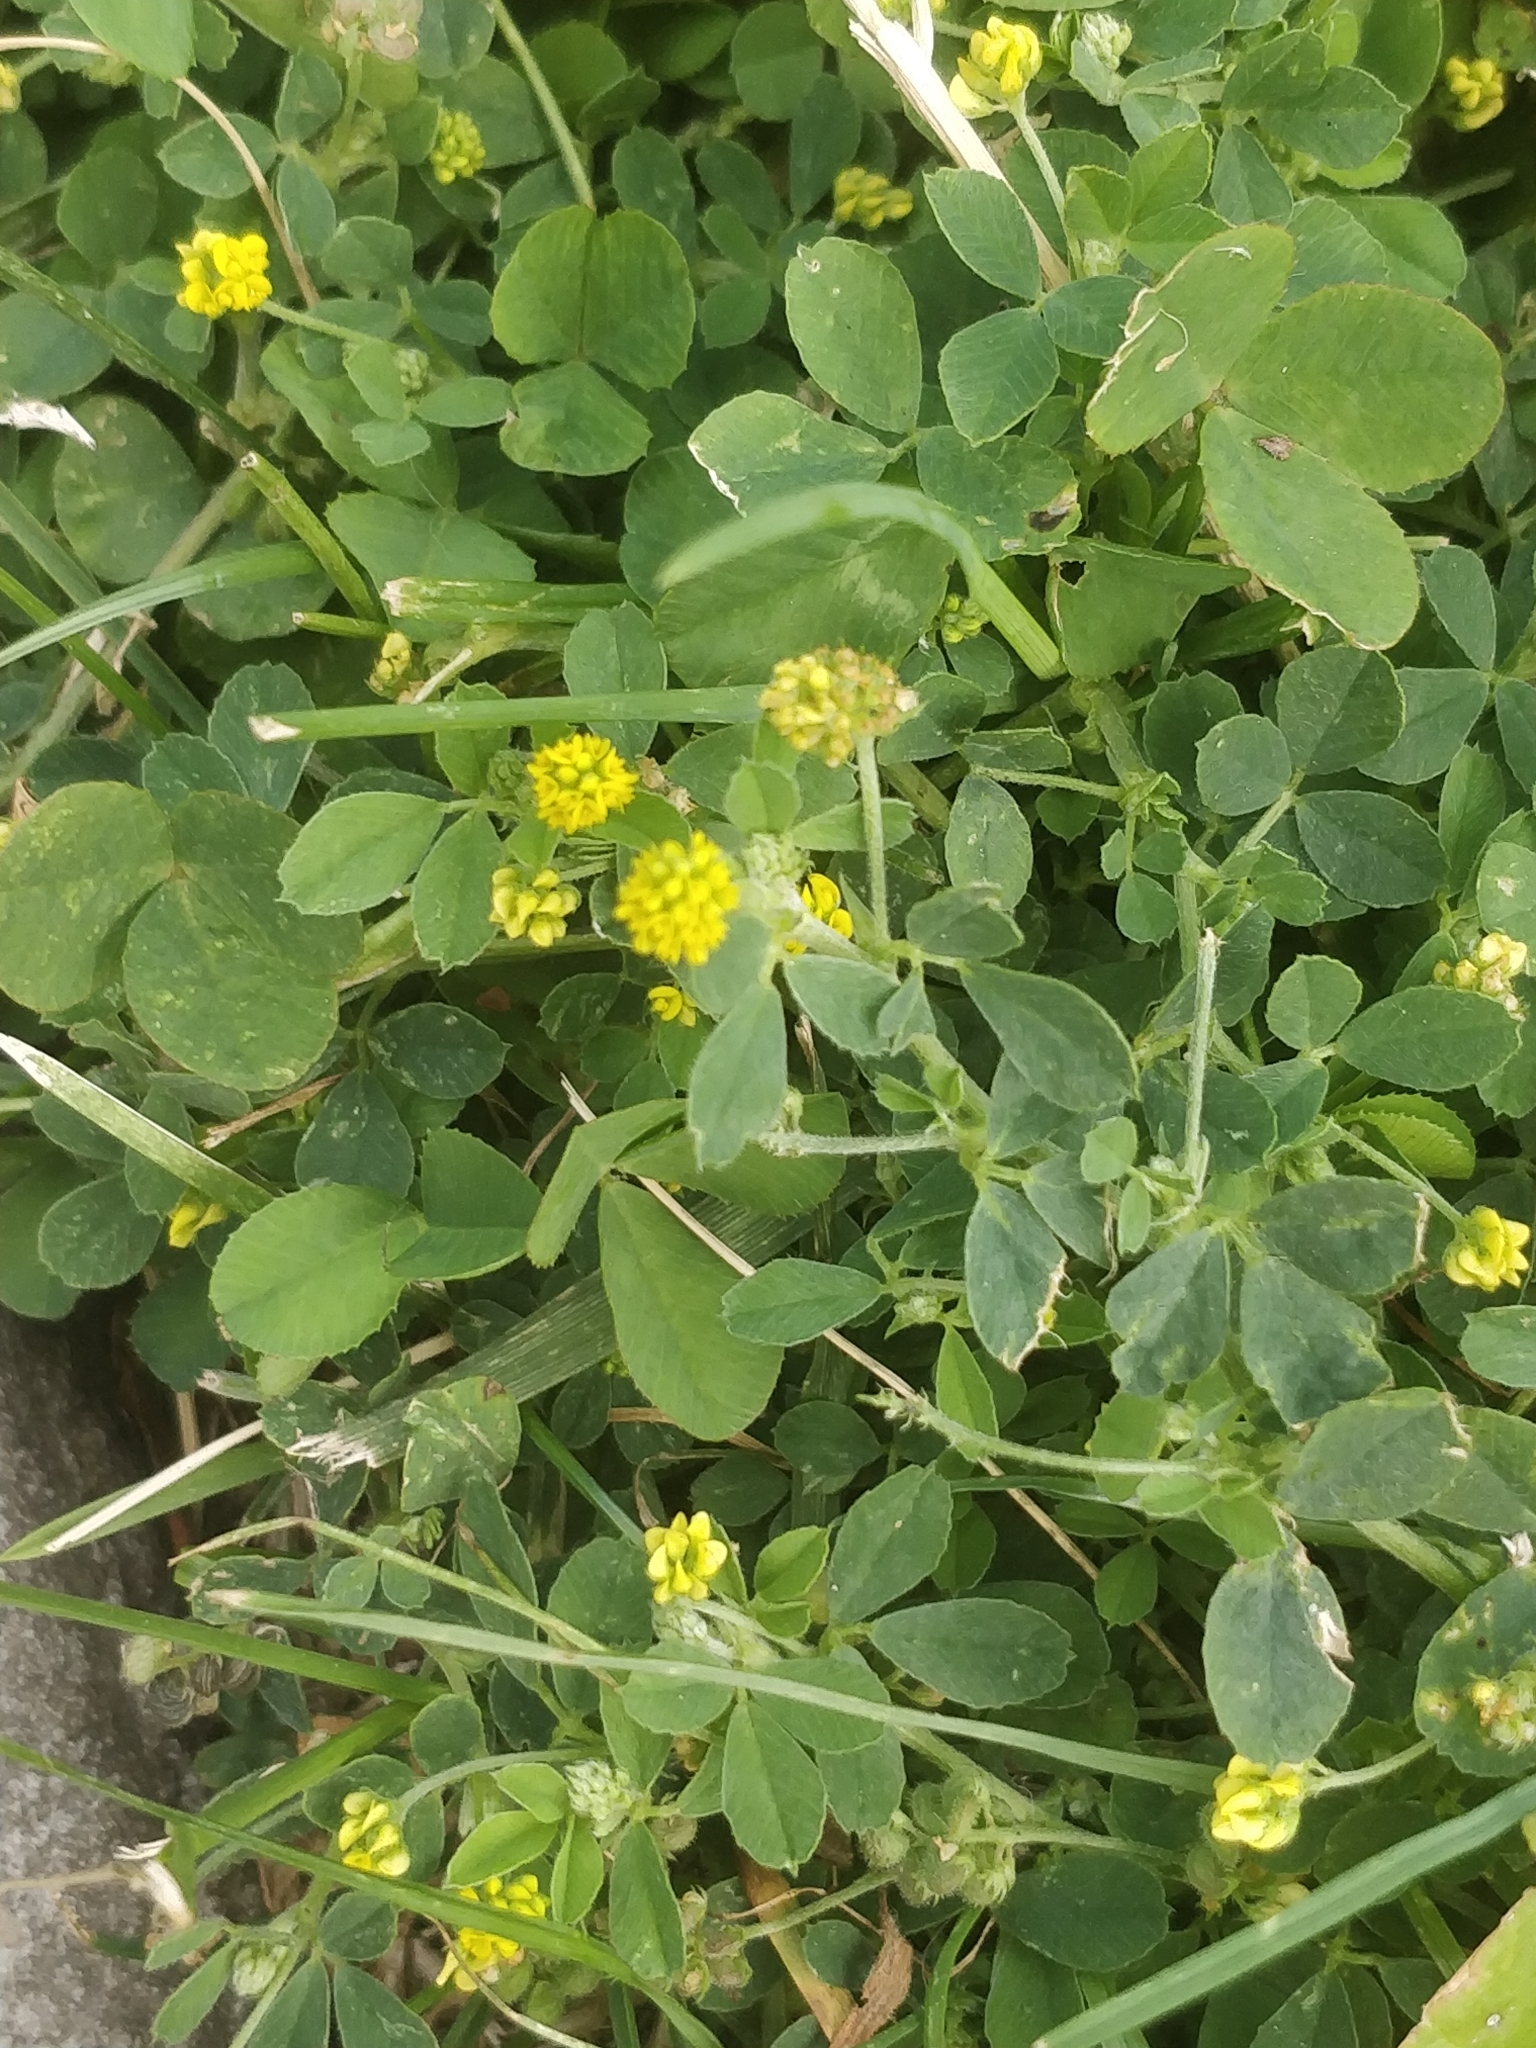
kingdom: Plantae
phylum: Tracheophyta
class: Magnoliopsida
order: Fabales
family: Fabaceae
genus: Medicago
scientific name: Medicago lupulina
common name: Black medick
